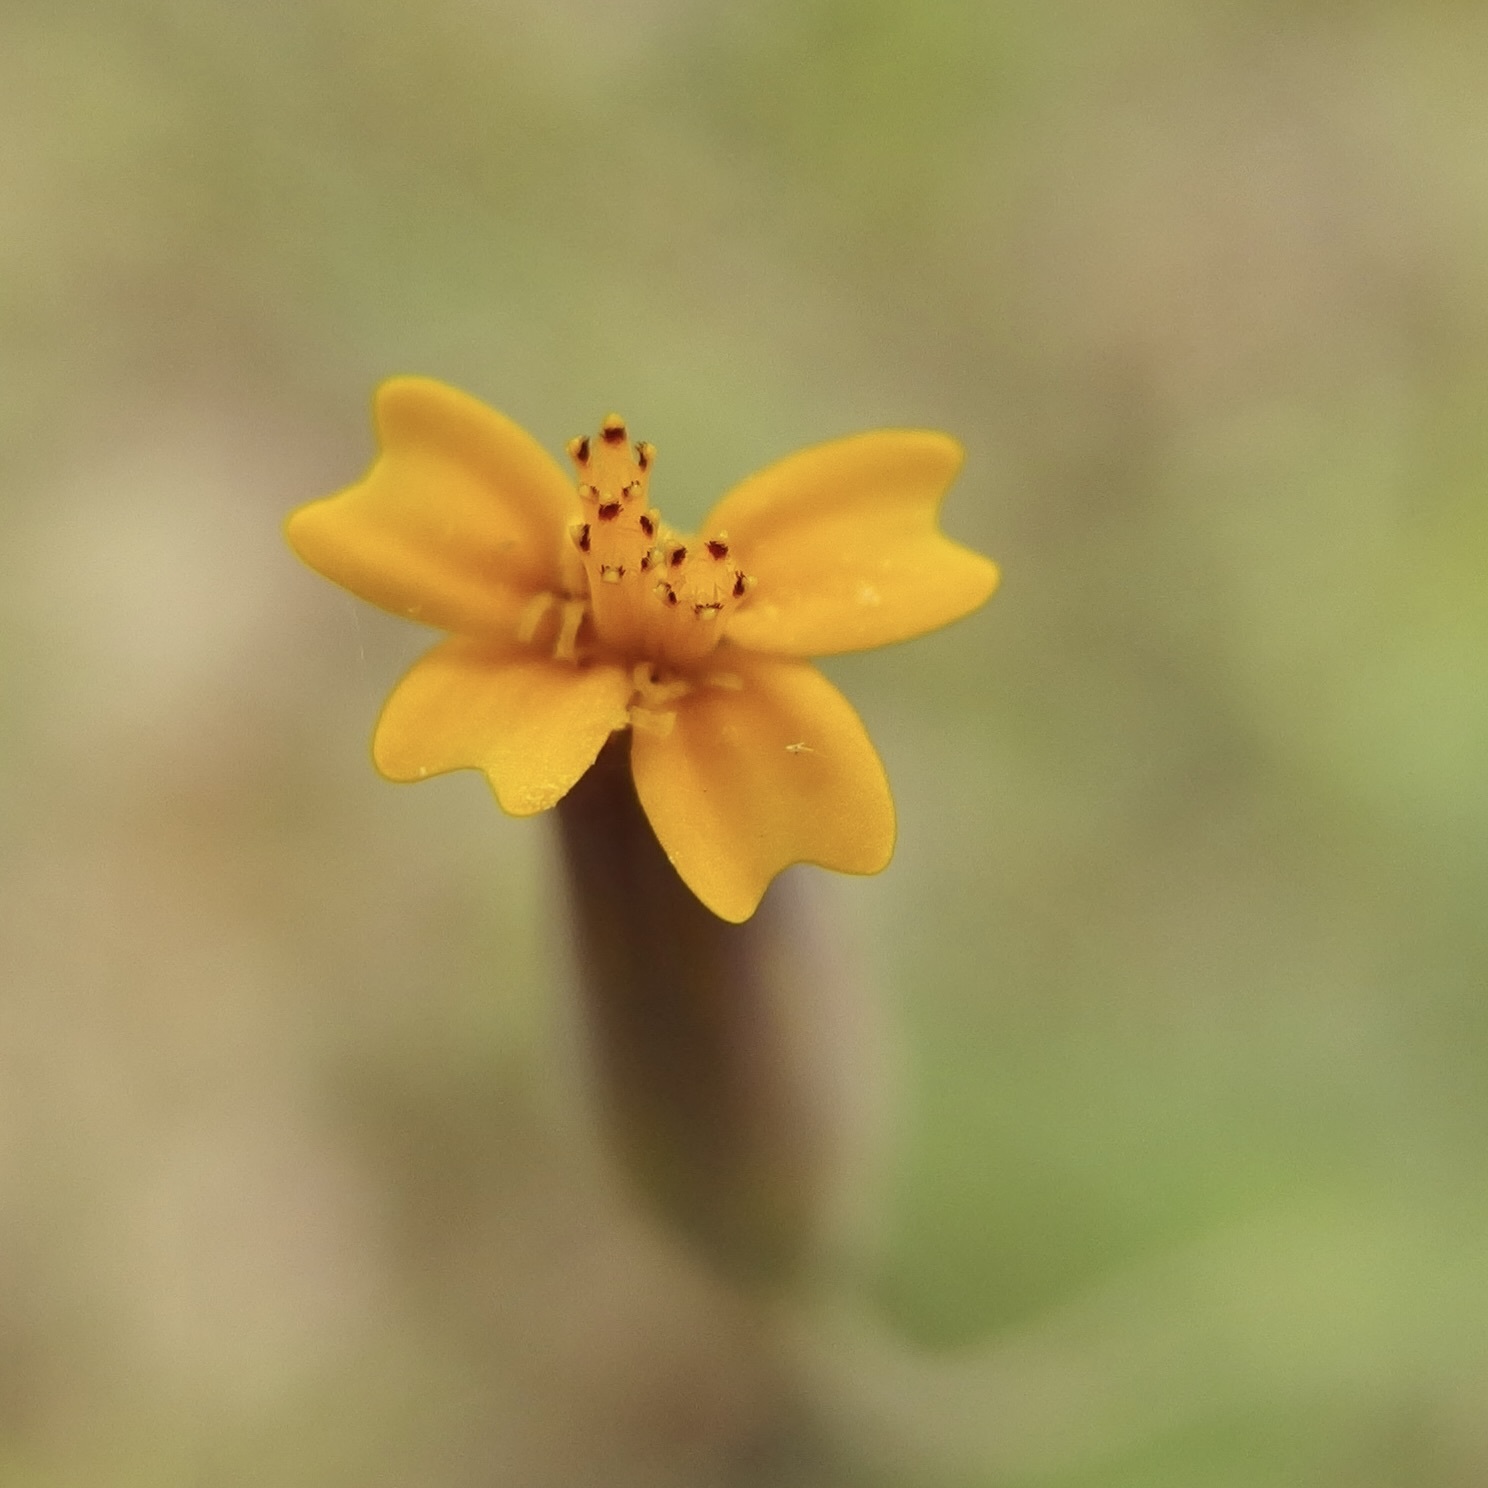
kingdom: Plantae
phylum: Tracheophyta
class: Magnoliopsida
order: Asterales
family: Asteraceae
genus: Tagetes
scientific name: Tagetes subulata
